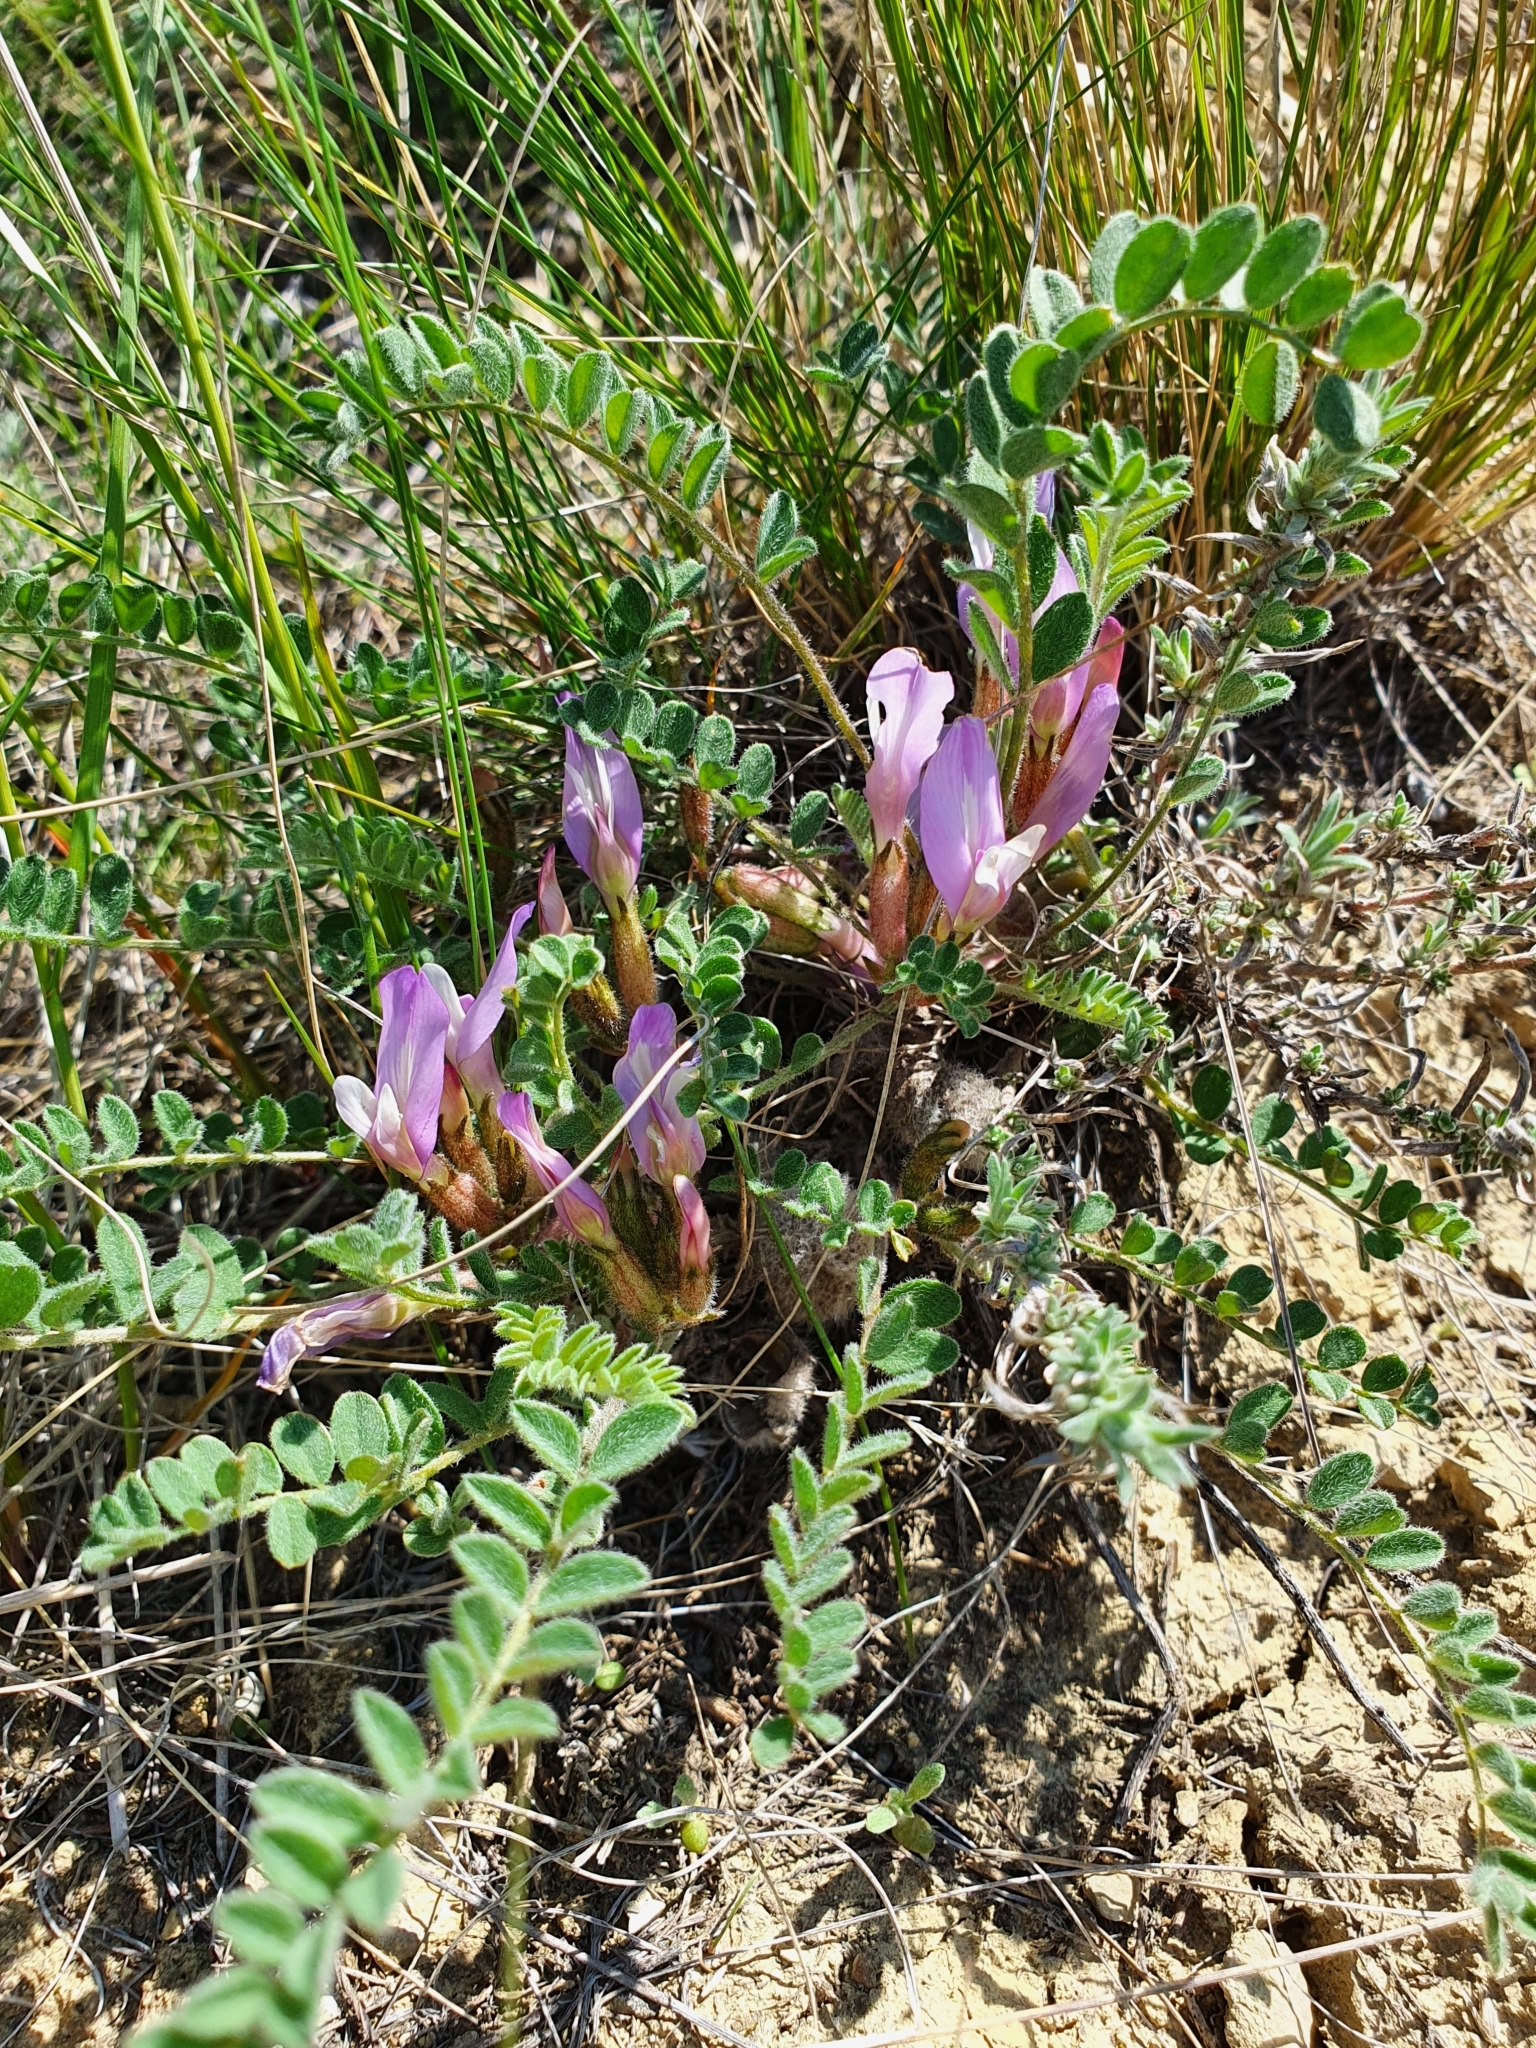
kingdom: Plantae
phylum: Tracheophyta
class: Magnoliopsida
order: Fabales
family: Fabaceae
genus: Astragalus
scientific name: Astragalus testiculatus
